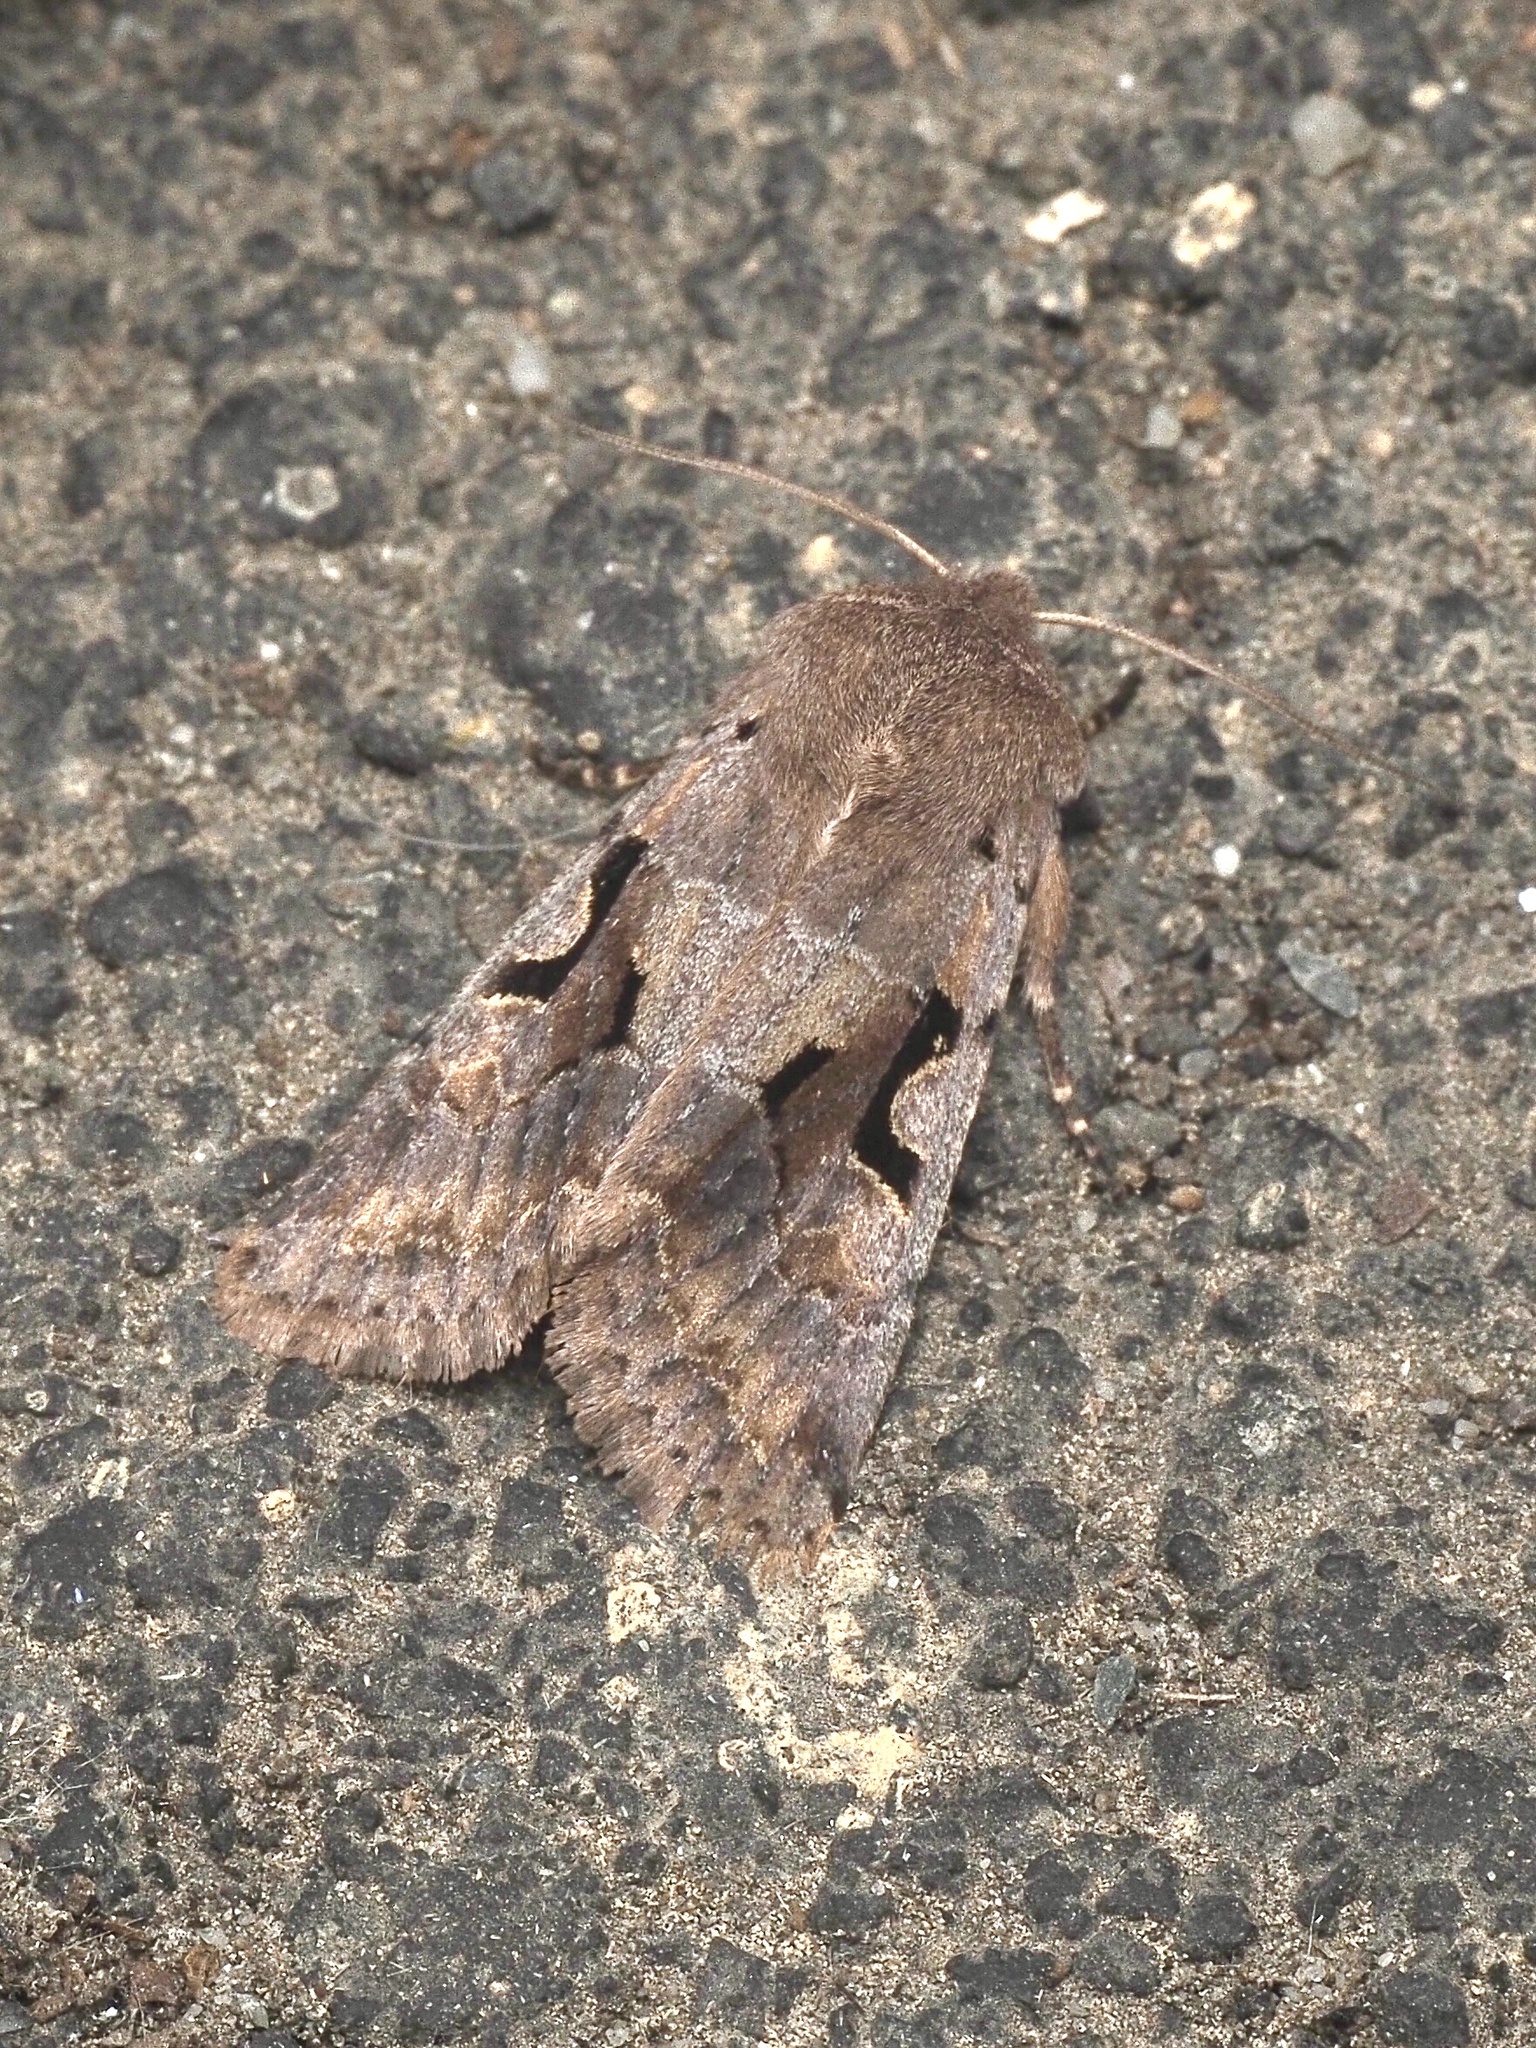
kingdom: Animalia
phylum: Arthropoda
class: Insecta
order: Lepidoptera
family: Noctuidae
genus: Orthosia
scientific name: Orthosia gothica
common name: Hebrew character
